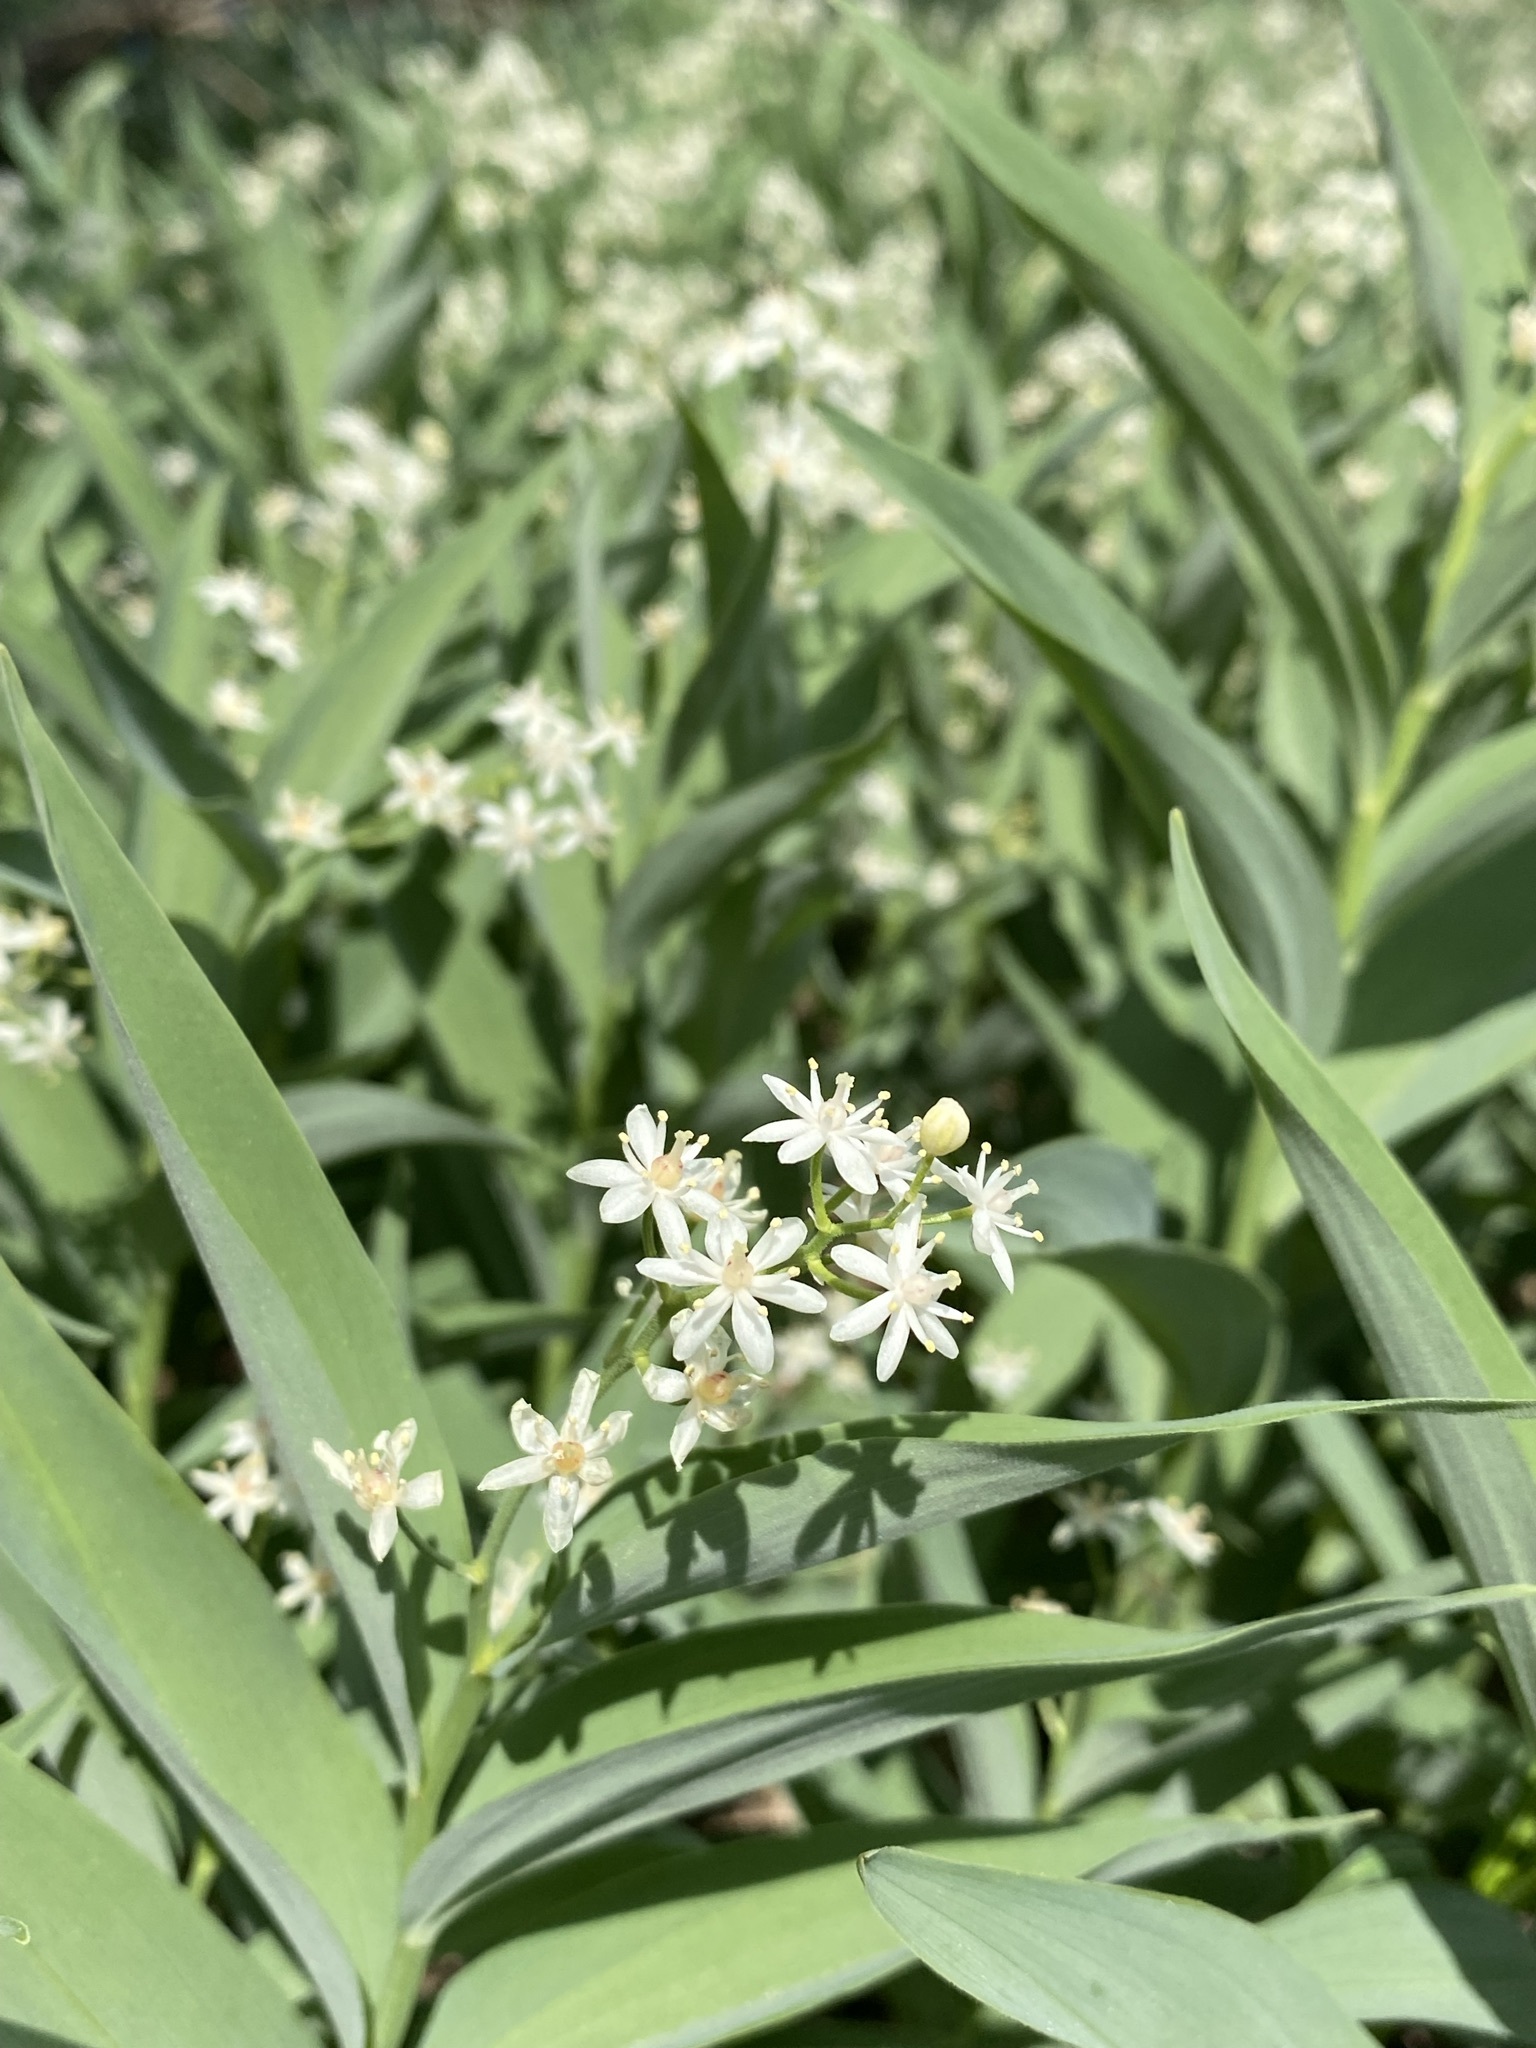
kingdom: Plantae
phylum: Tracheophyta
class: Liliopsida
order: Asparagales
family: Asparagaceae
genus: Maianthemum
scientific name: Maianthemum stellatum
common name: Little false solomon's seal
